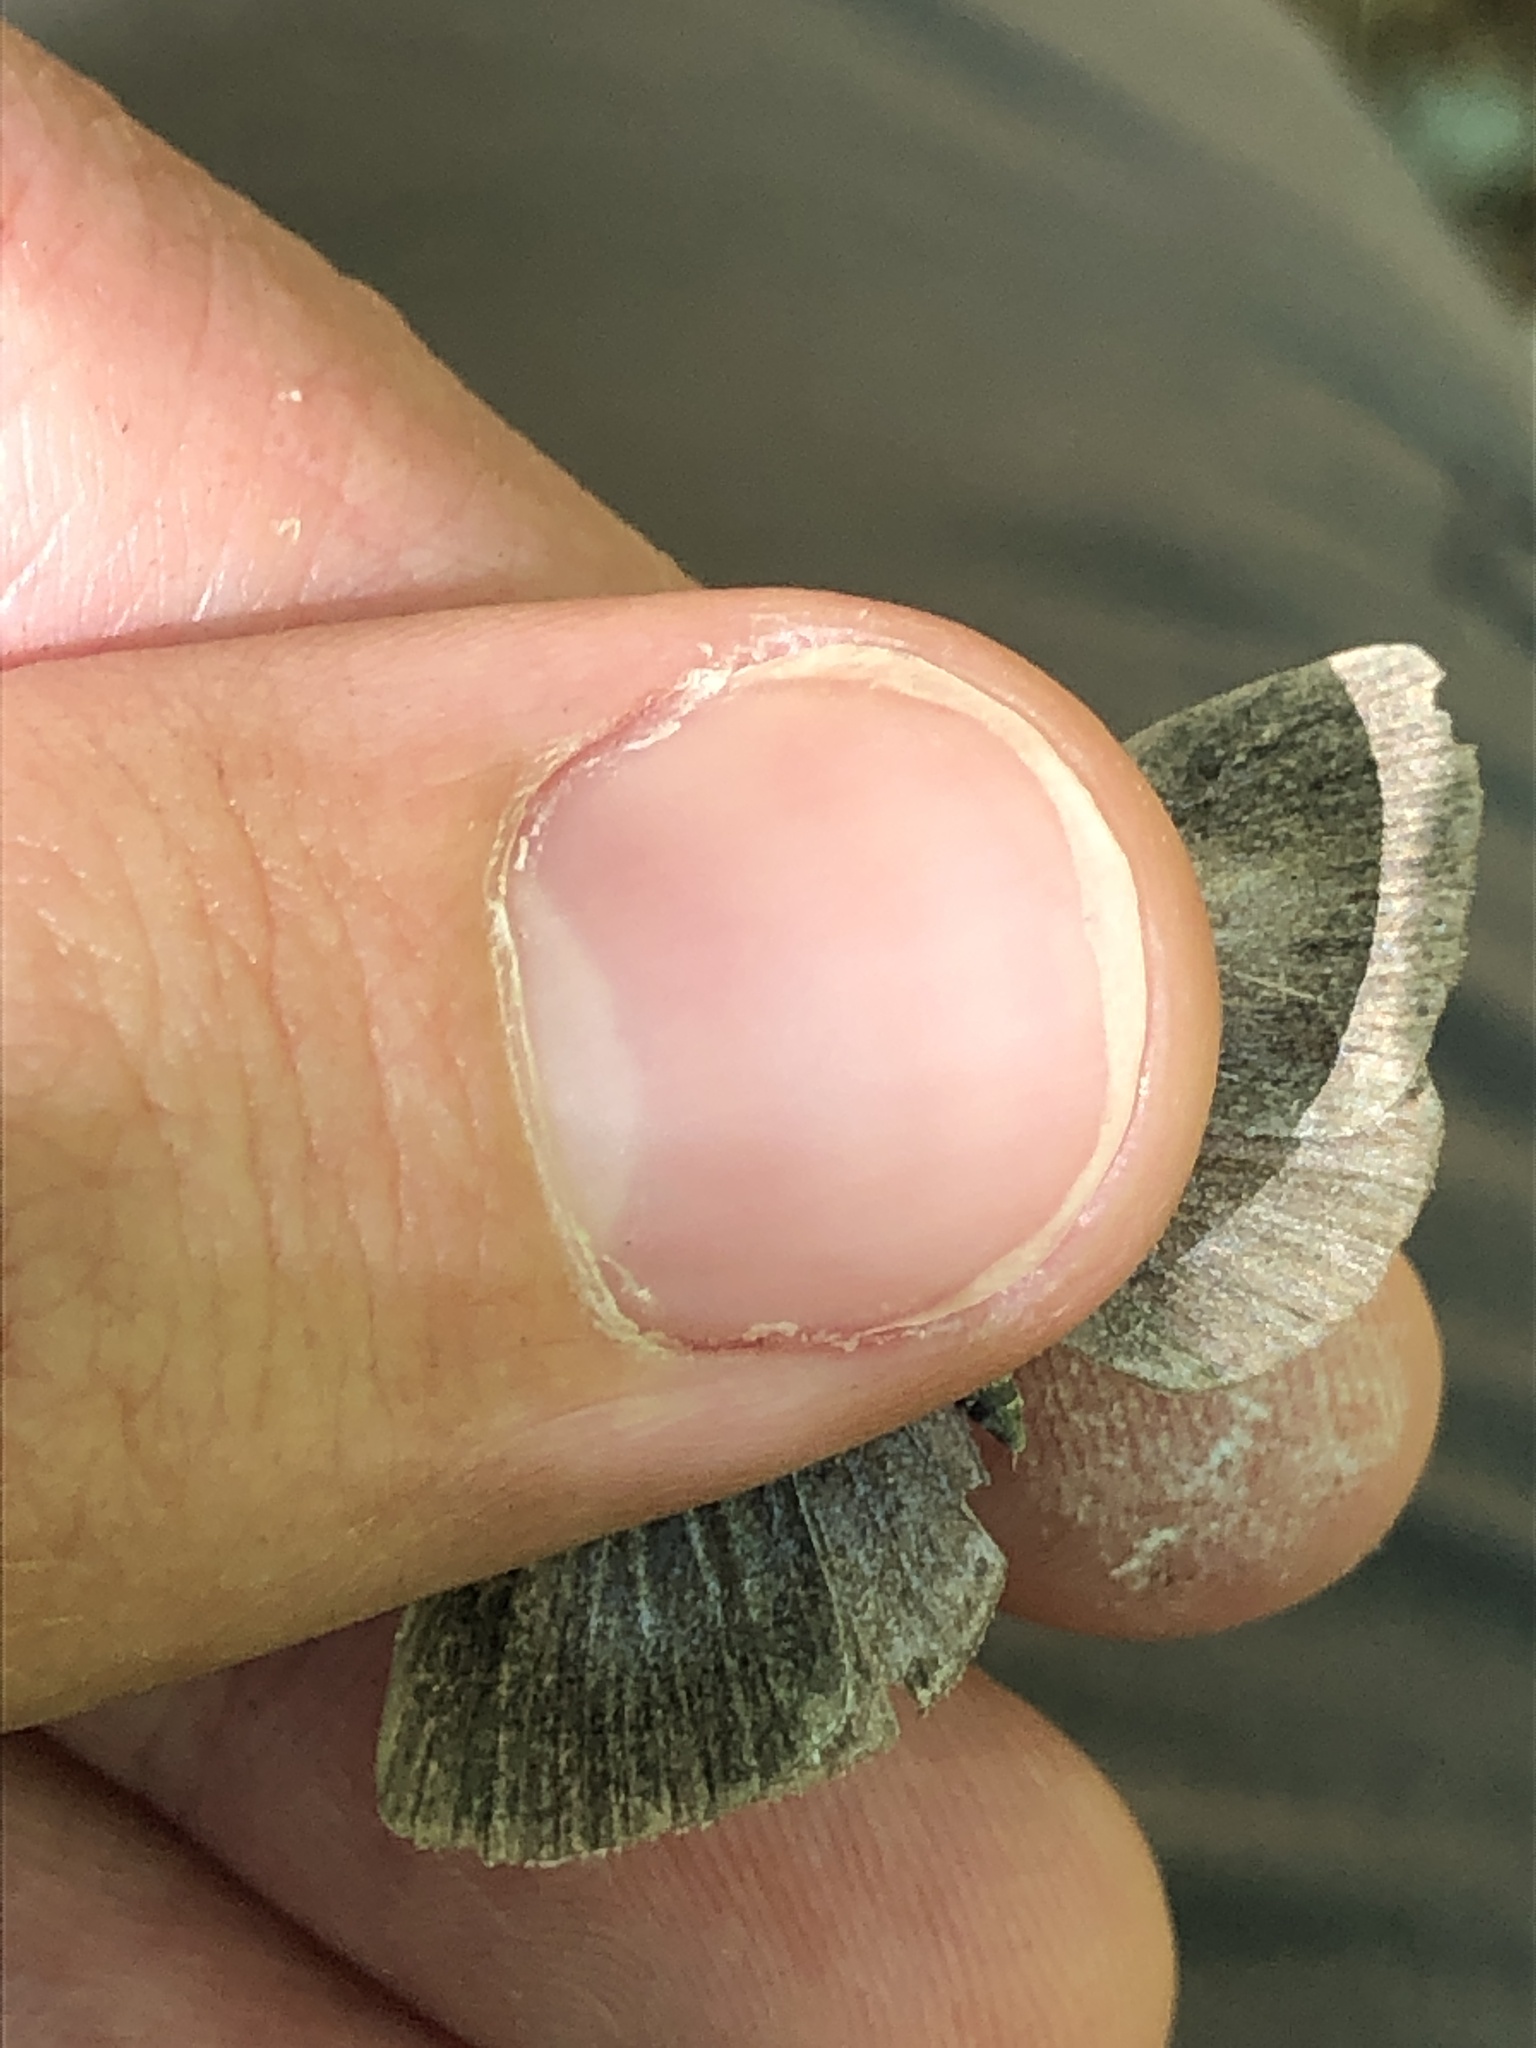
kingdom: Animalia
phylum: Arthropoda
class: Insecta
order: Lepidoptera
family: Lycaenidae
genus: Celastrina
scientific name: Celastrina argiolus
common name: Holly blue
